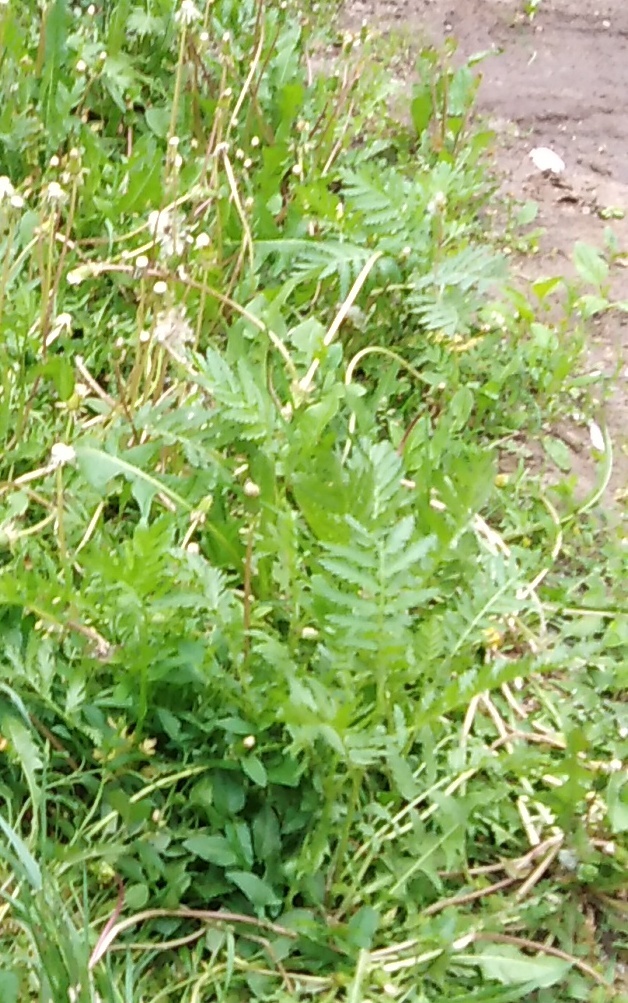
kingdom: Plantae
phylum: Tracheophyta
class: Magnoliopsida
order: Asterales
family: Asteraceae
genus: Tanacetum
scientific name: Tanacetum vulgare
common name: Common tansy
